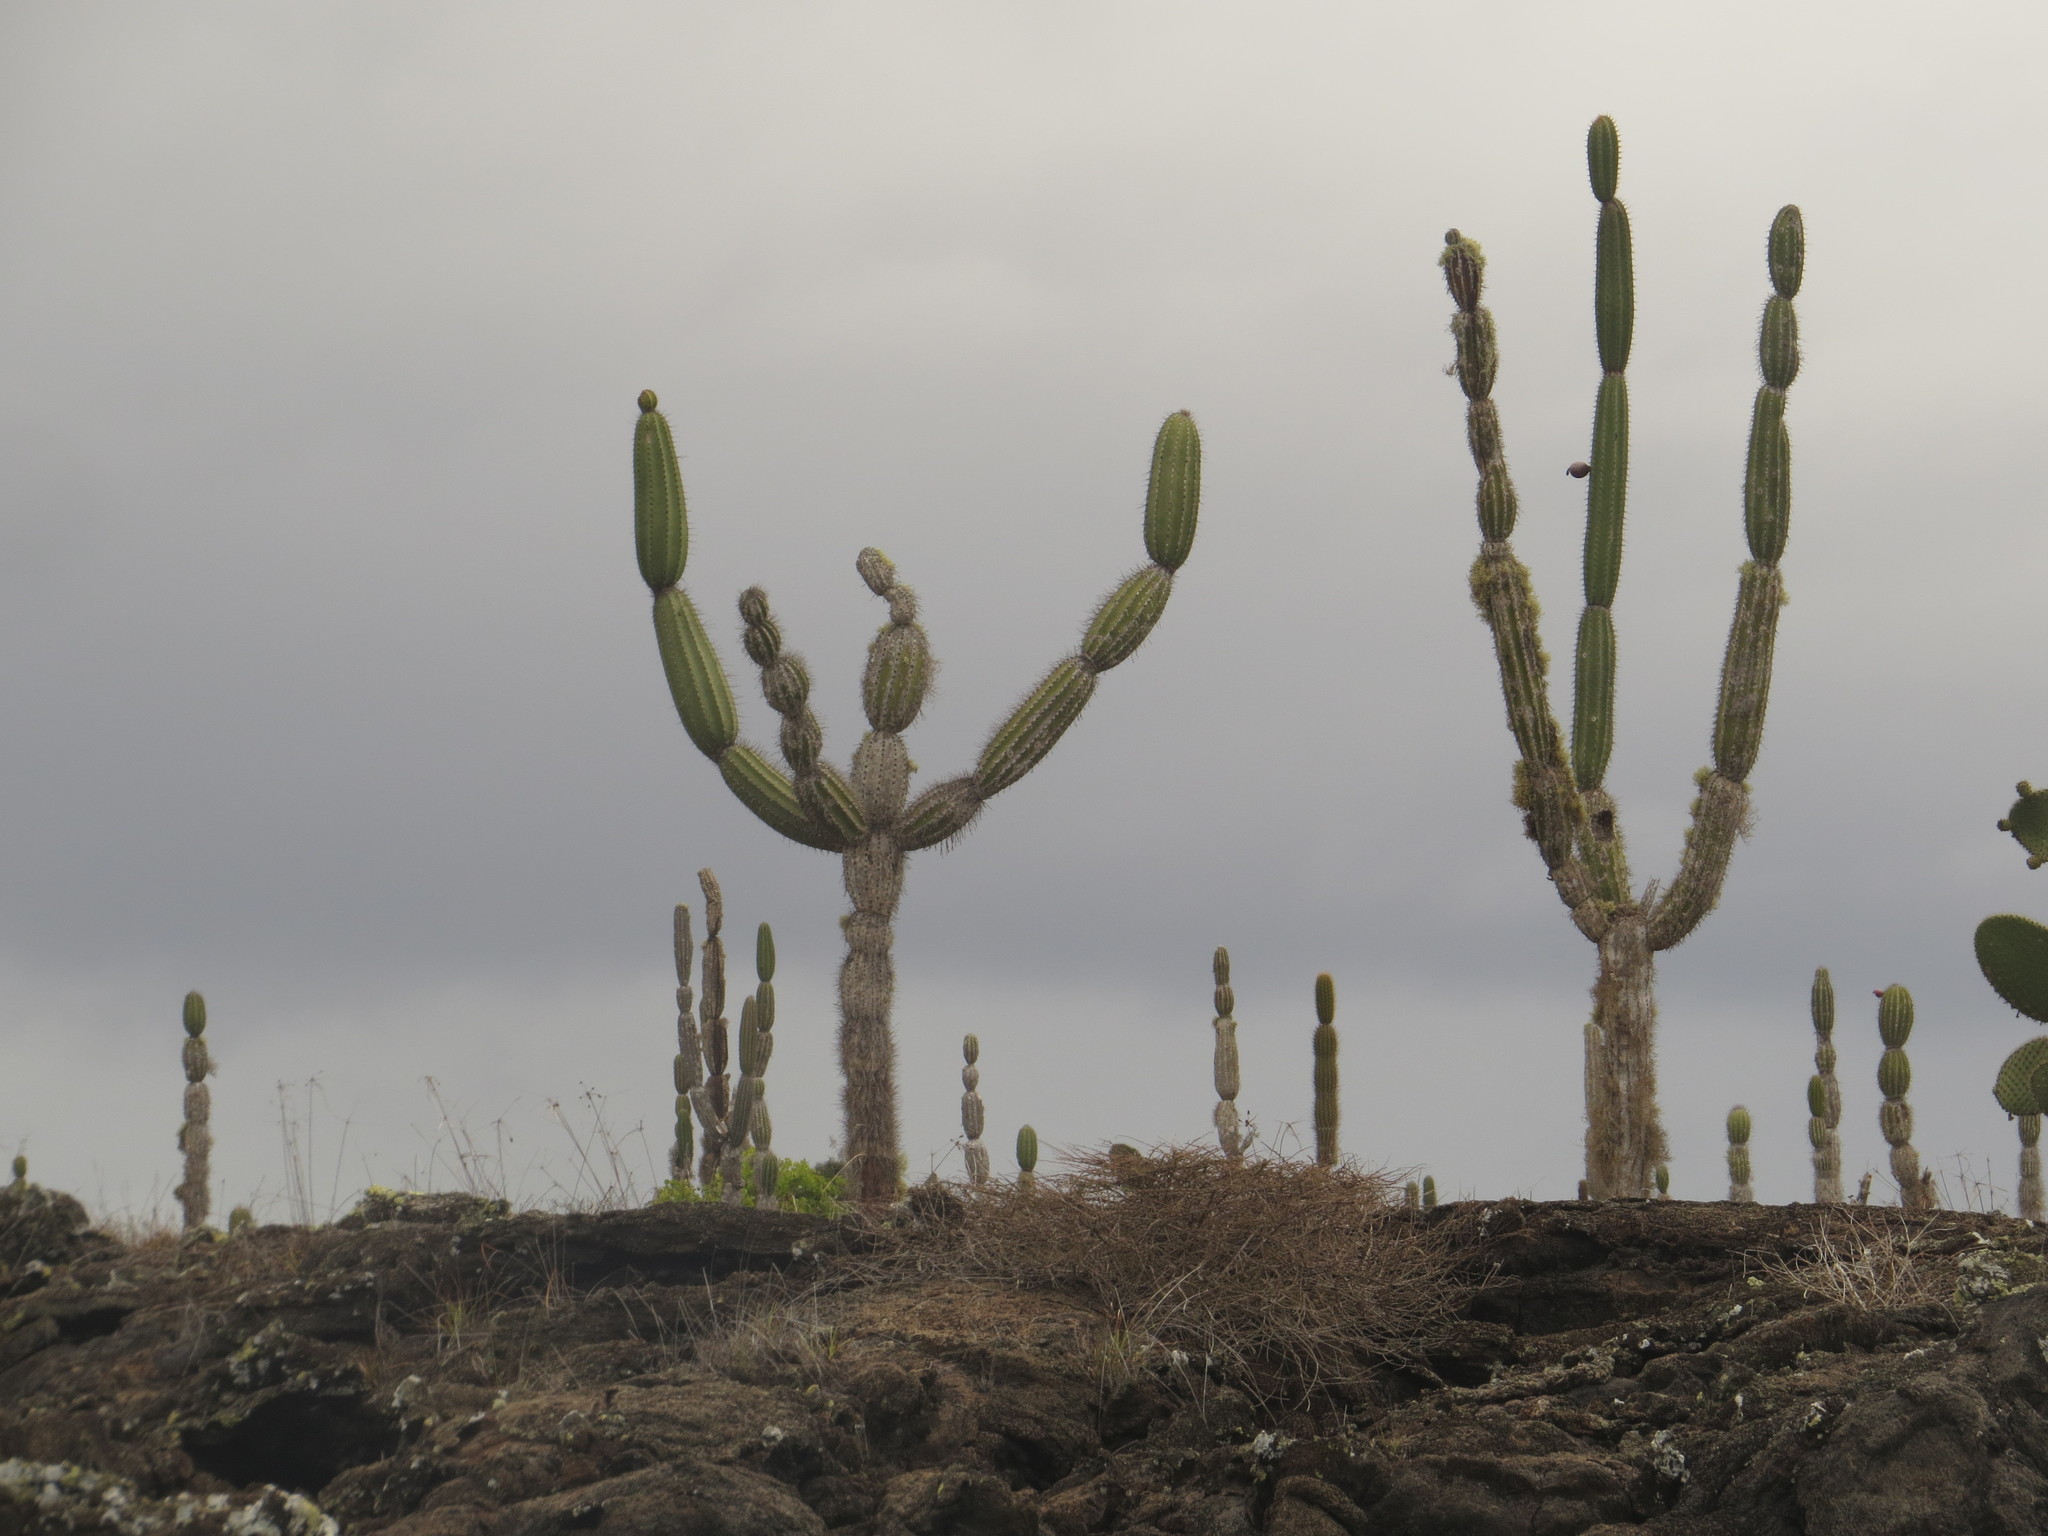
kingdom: Plantae
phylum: Tracheophyta
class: Magnoliopsida
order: Caryophyllales
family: Cactaceae
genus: Jasminocereus
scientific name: Jasminocereus thouarsii
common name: Candelabra cactus
